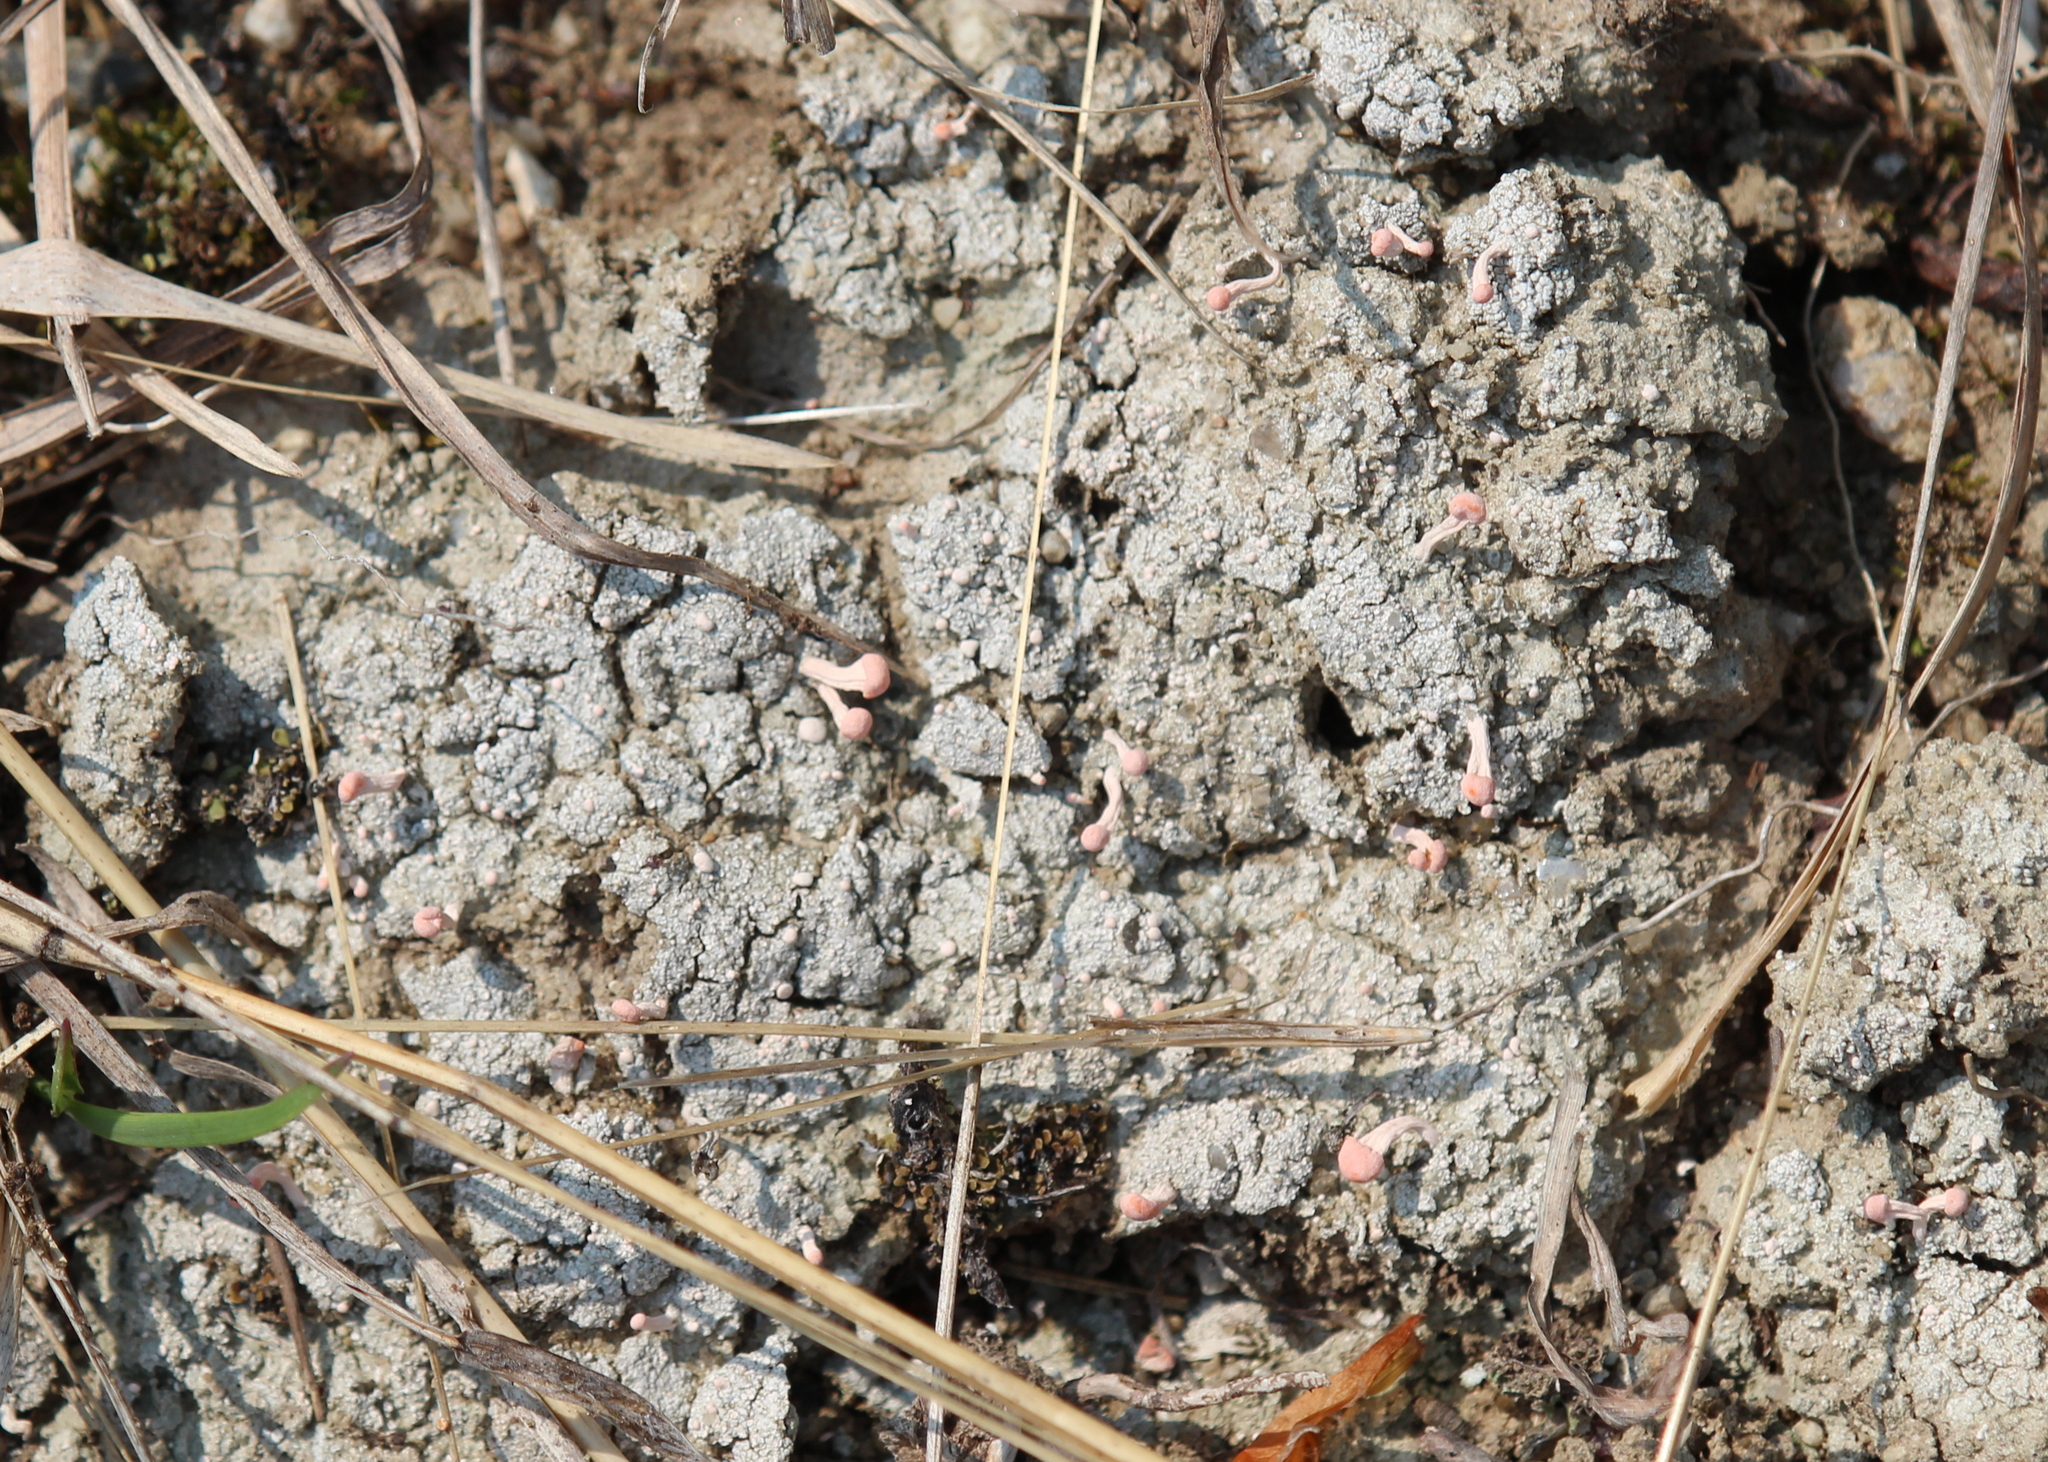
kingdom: Fungi
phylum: Ascomycota
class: Lecanoromycetes
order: Pertusariales
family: Icmadophilaceae
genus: Dibaeis
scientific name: Dibaeis baeomyces
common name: Pink earth lichen
